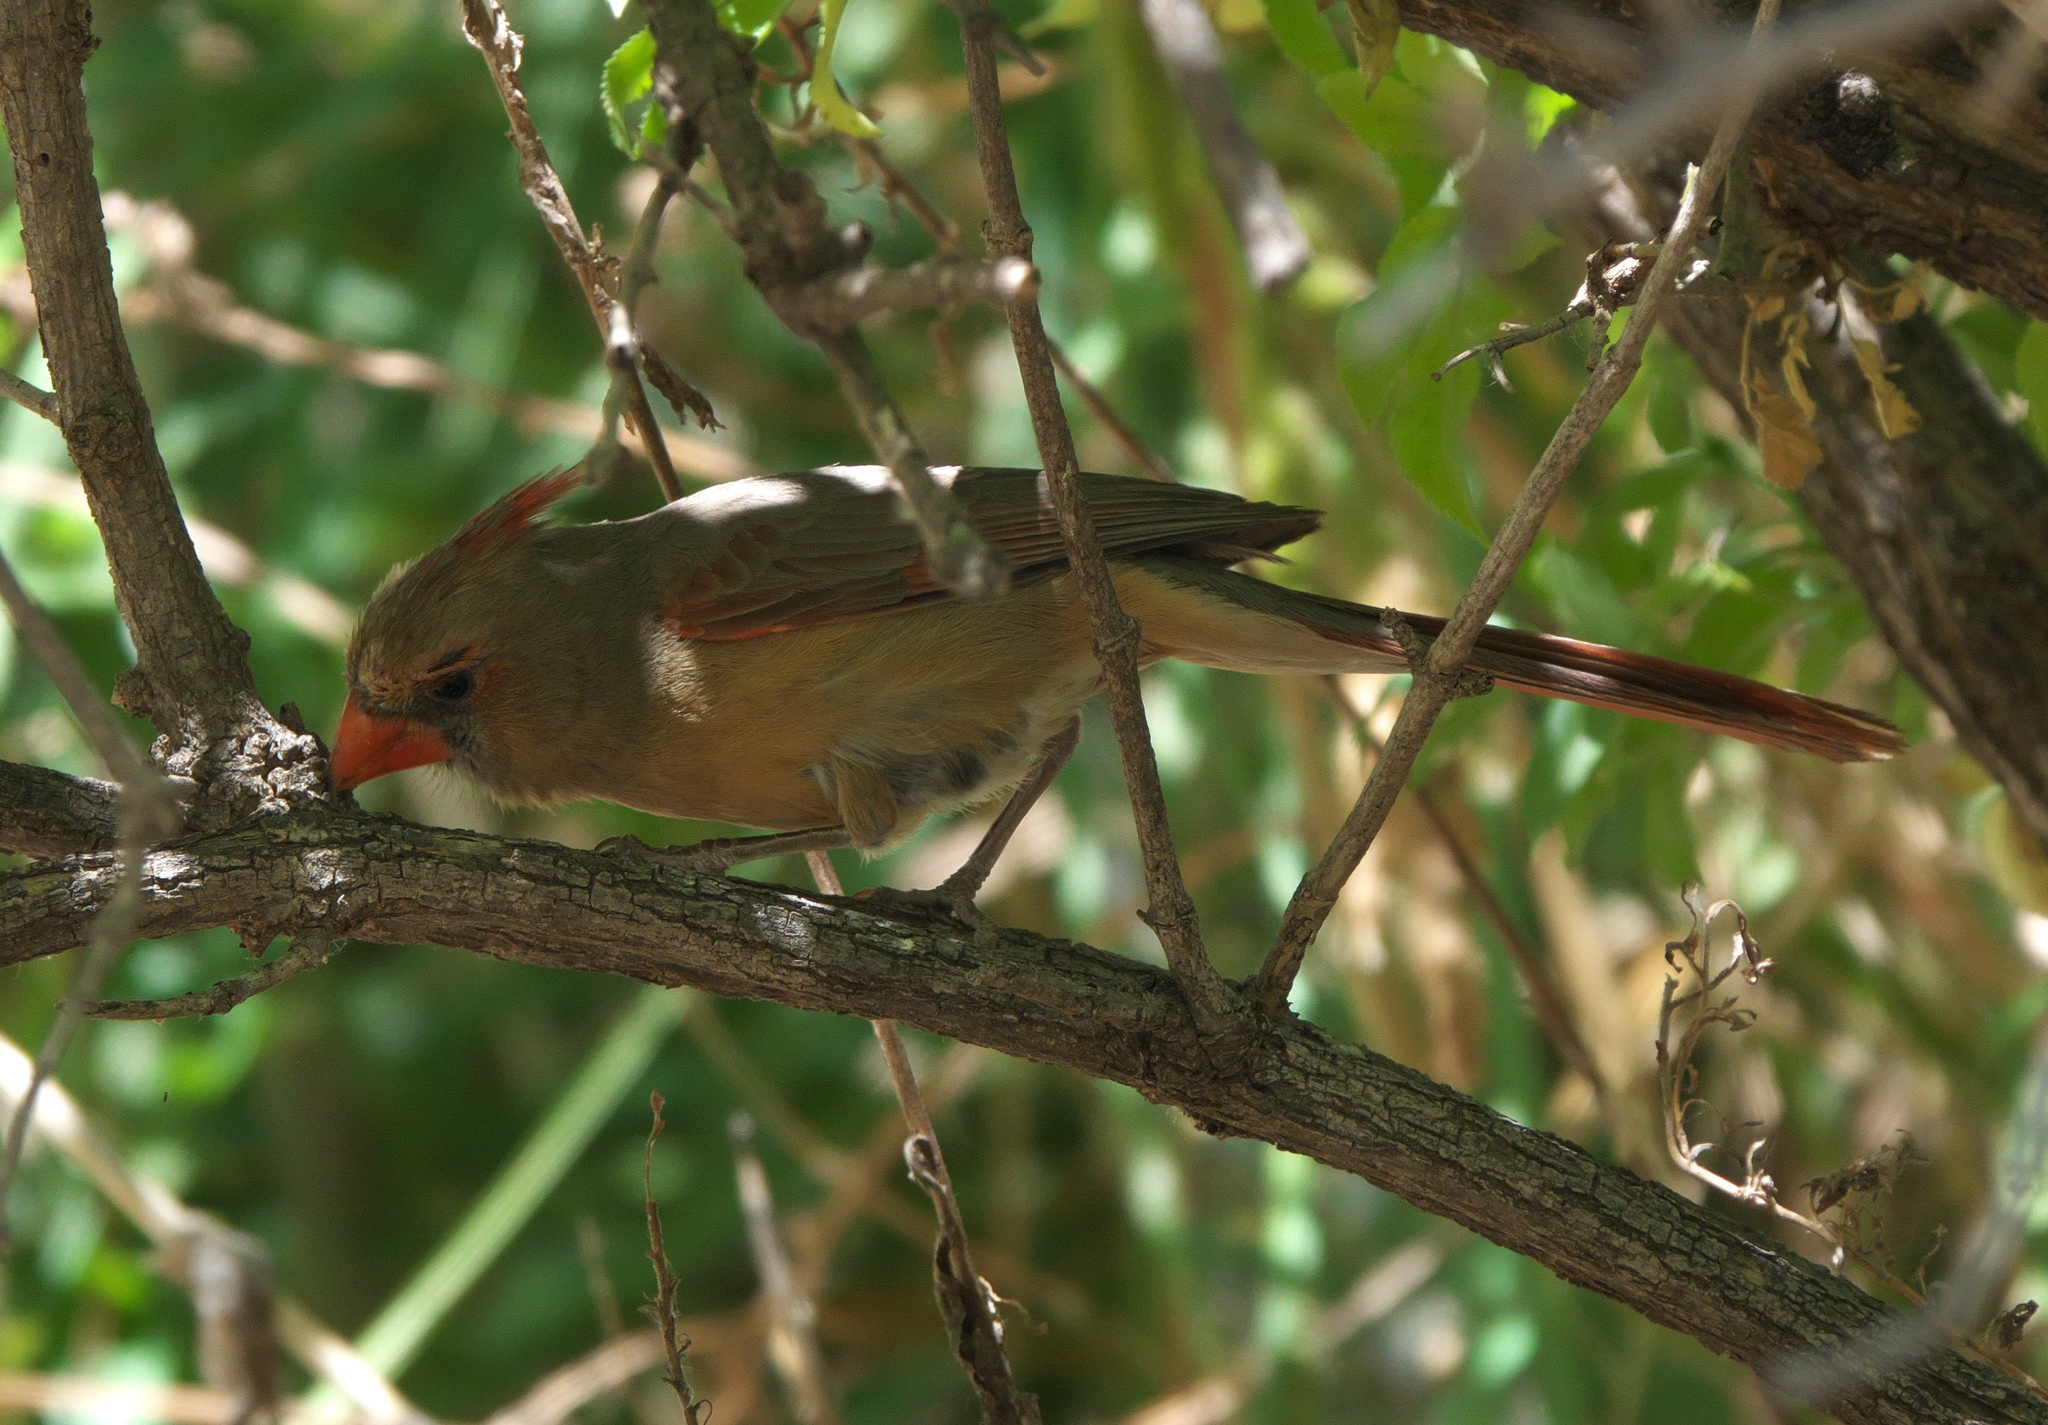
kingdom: Animalia
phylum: Chordata
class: Aves
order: Passeriformes
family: Cardinalidae
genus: Cardinalis
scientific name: Cardinalis cardinalis
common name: Northern cardinal
